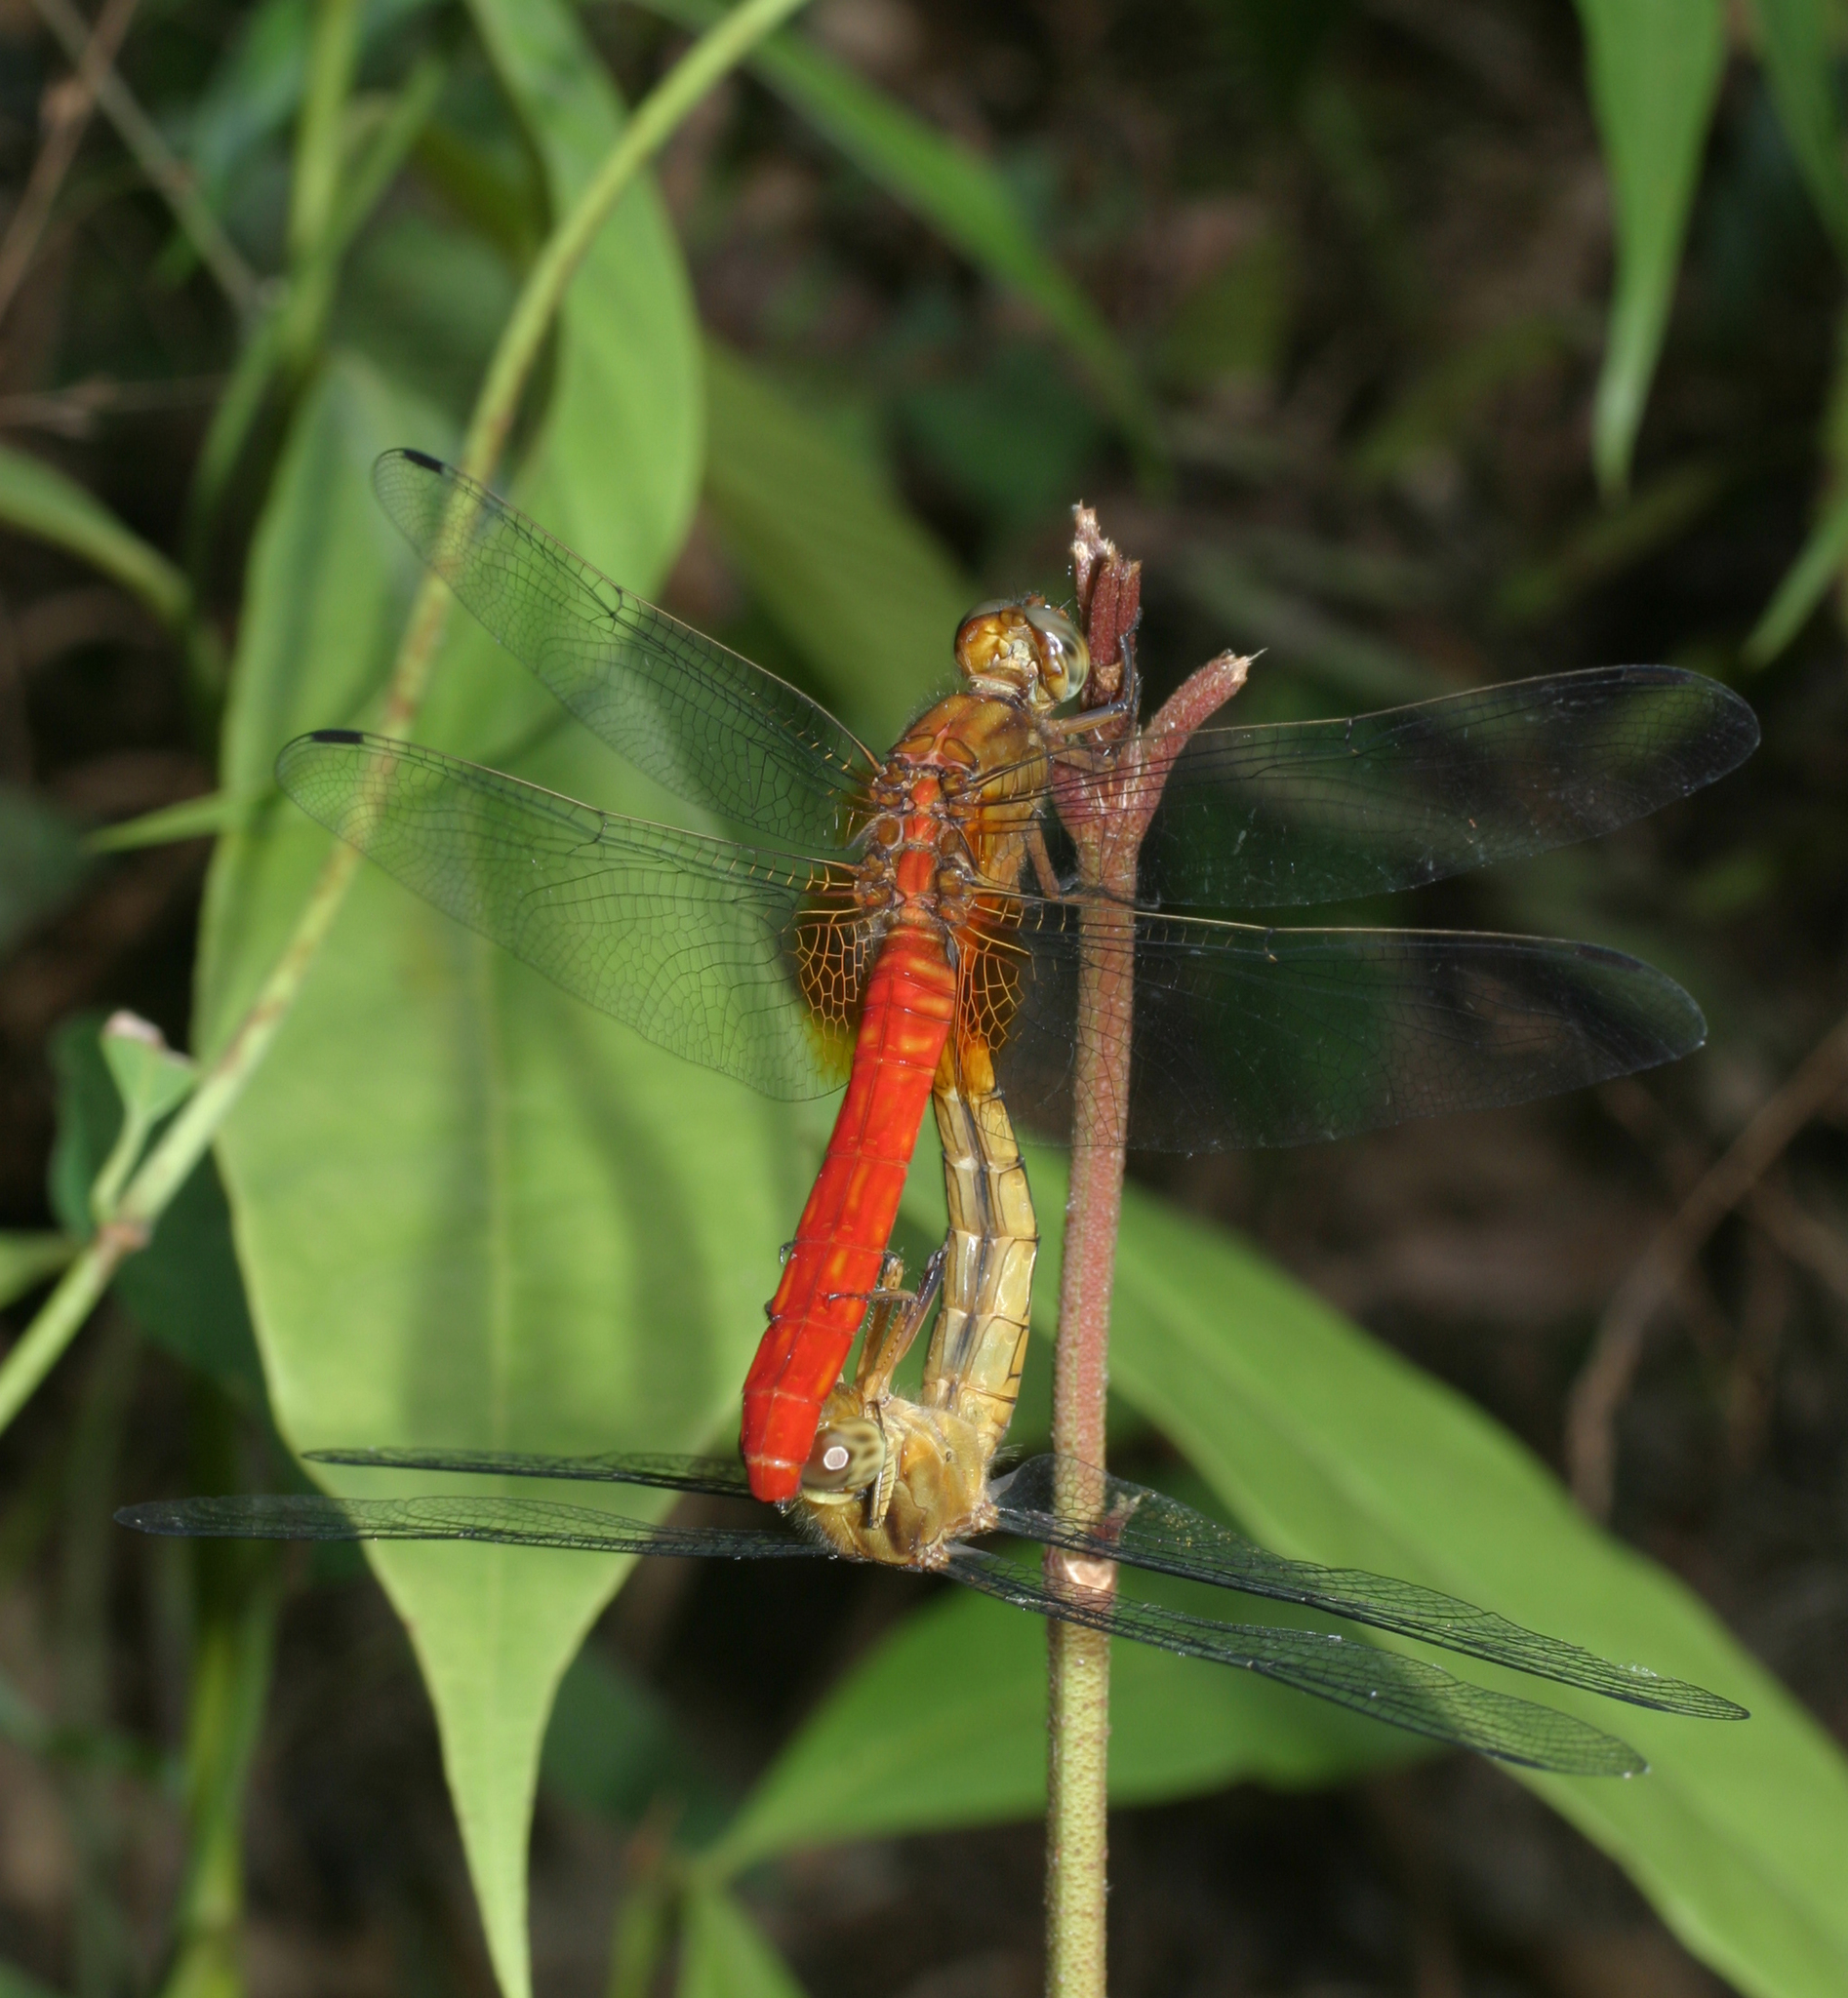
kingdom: Animalia
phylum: Arthropoda
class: Insecta
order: Odonata
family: Libellulidae
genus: Orthetrum
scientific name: Orthetrum testaceum
